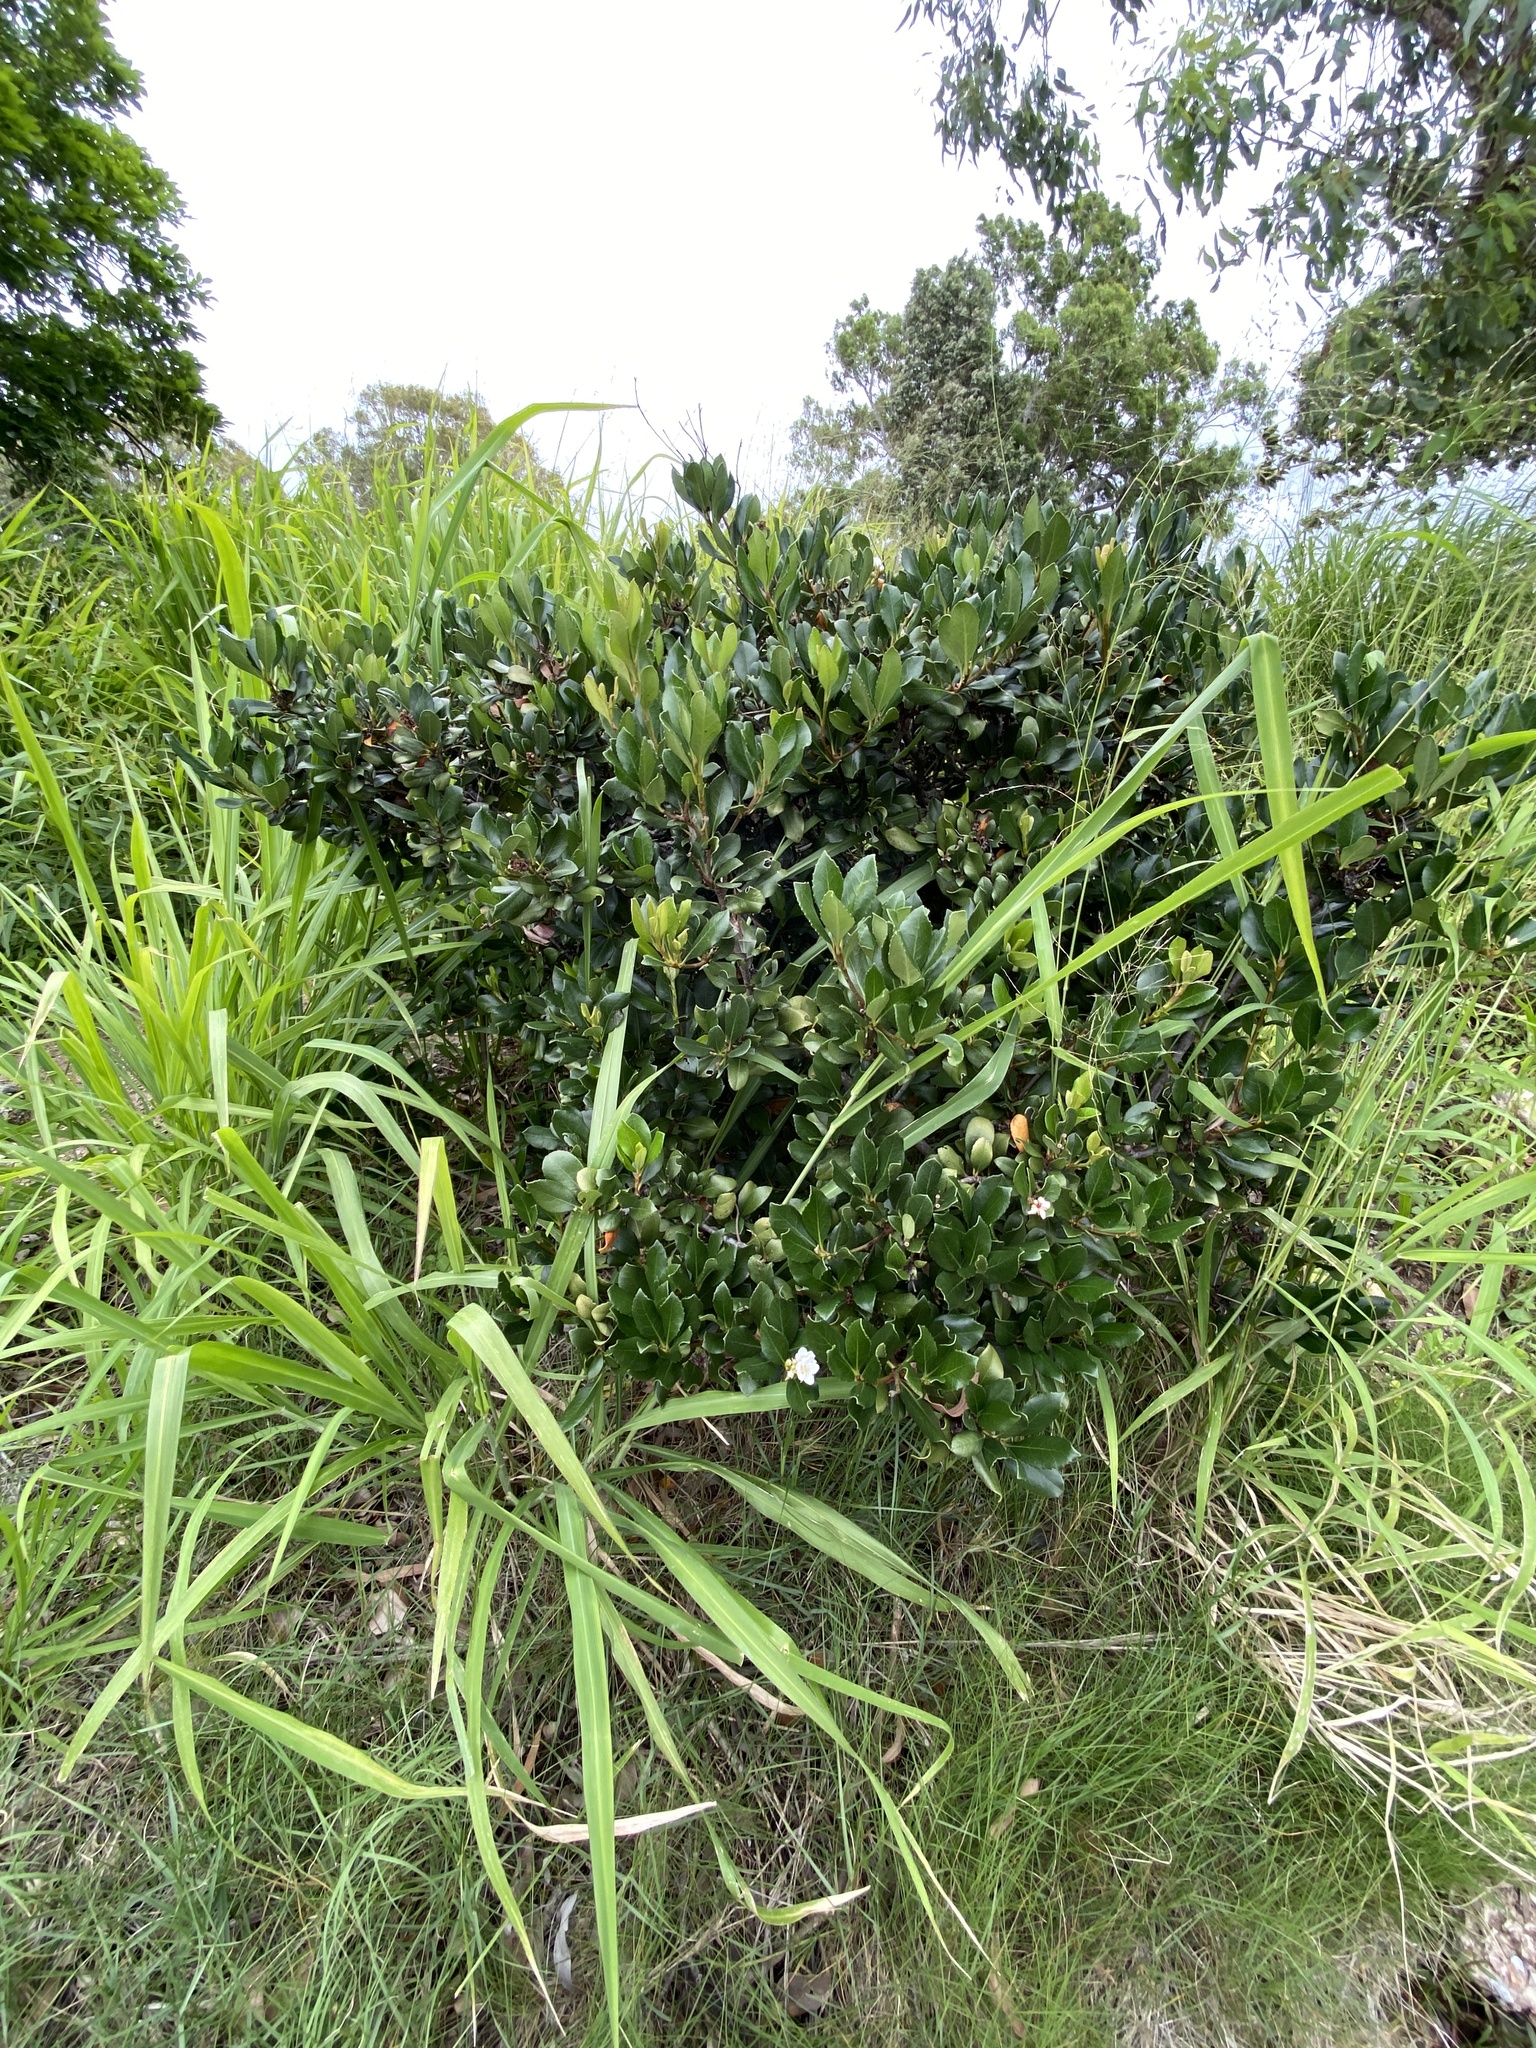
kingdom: Plantae
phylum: Tracheophyta
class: Magnoliopsida
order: Rosales
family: Rosaceae
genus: Rhaphiolepis
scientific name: Rhaphiolepis indica
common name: India-hawthorn
